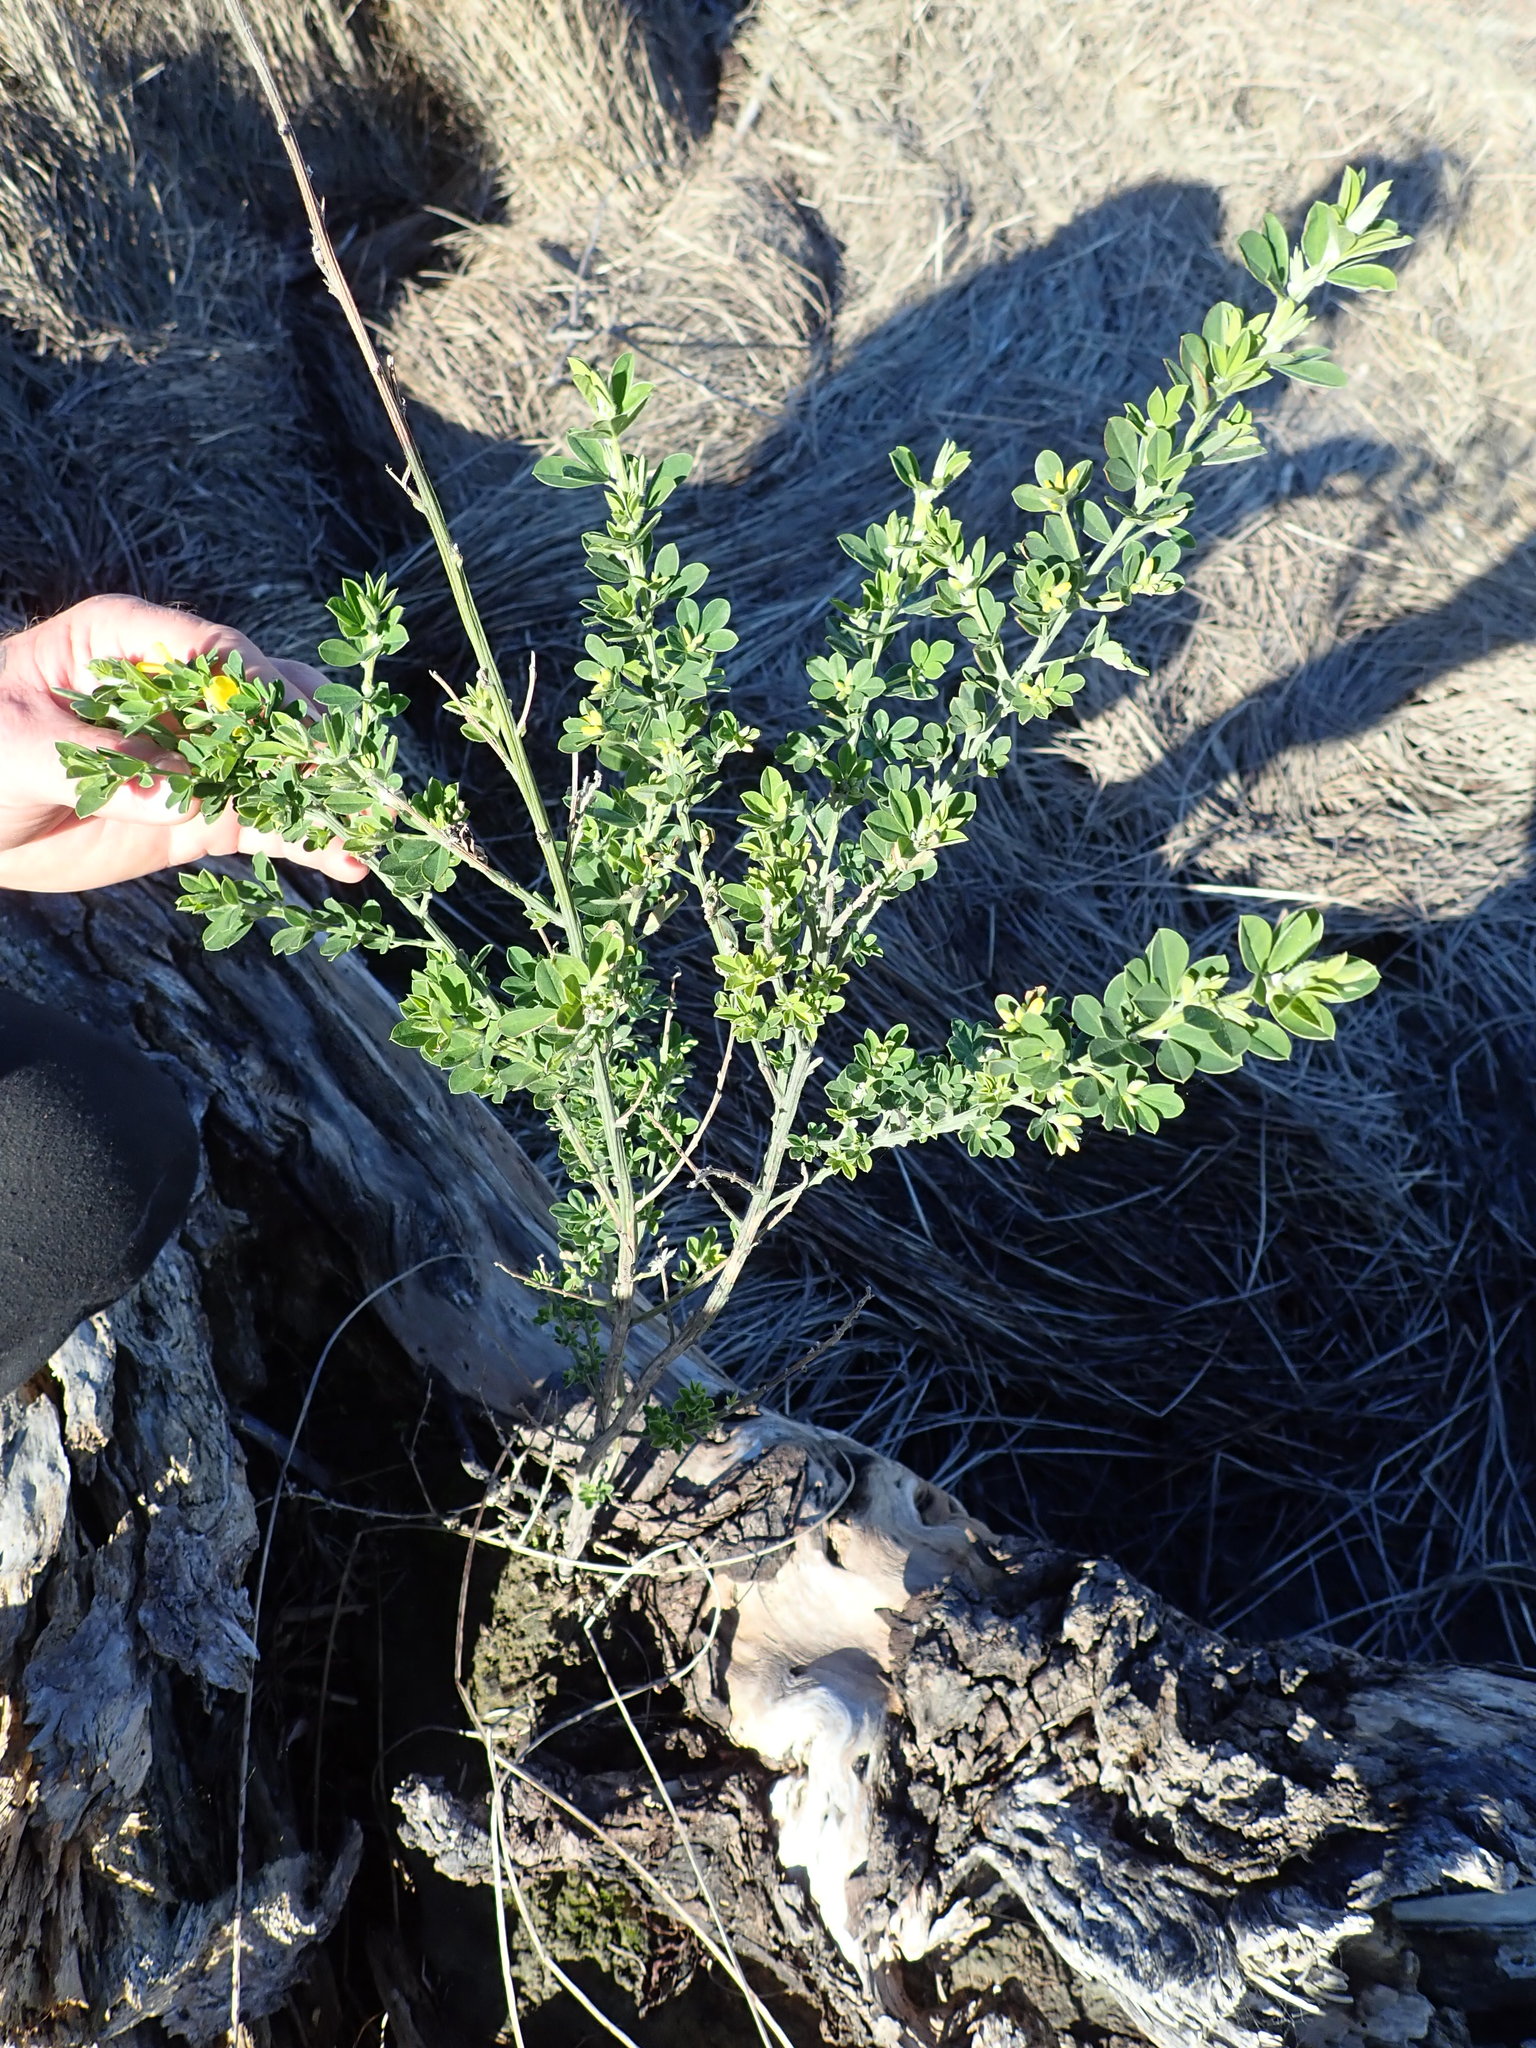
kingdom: Plantae
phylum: Tracheophyta
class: Magnoliopsida
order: Fabales
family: Fabaceae
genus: Genista
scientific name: Genista monspessulana
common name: Montpellier broom
